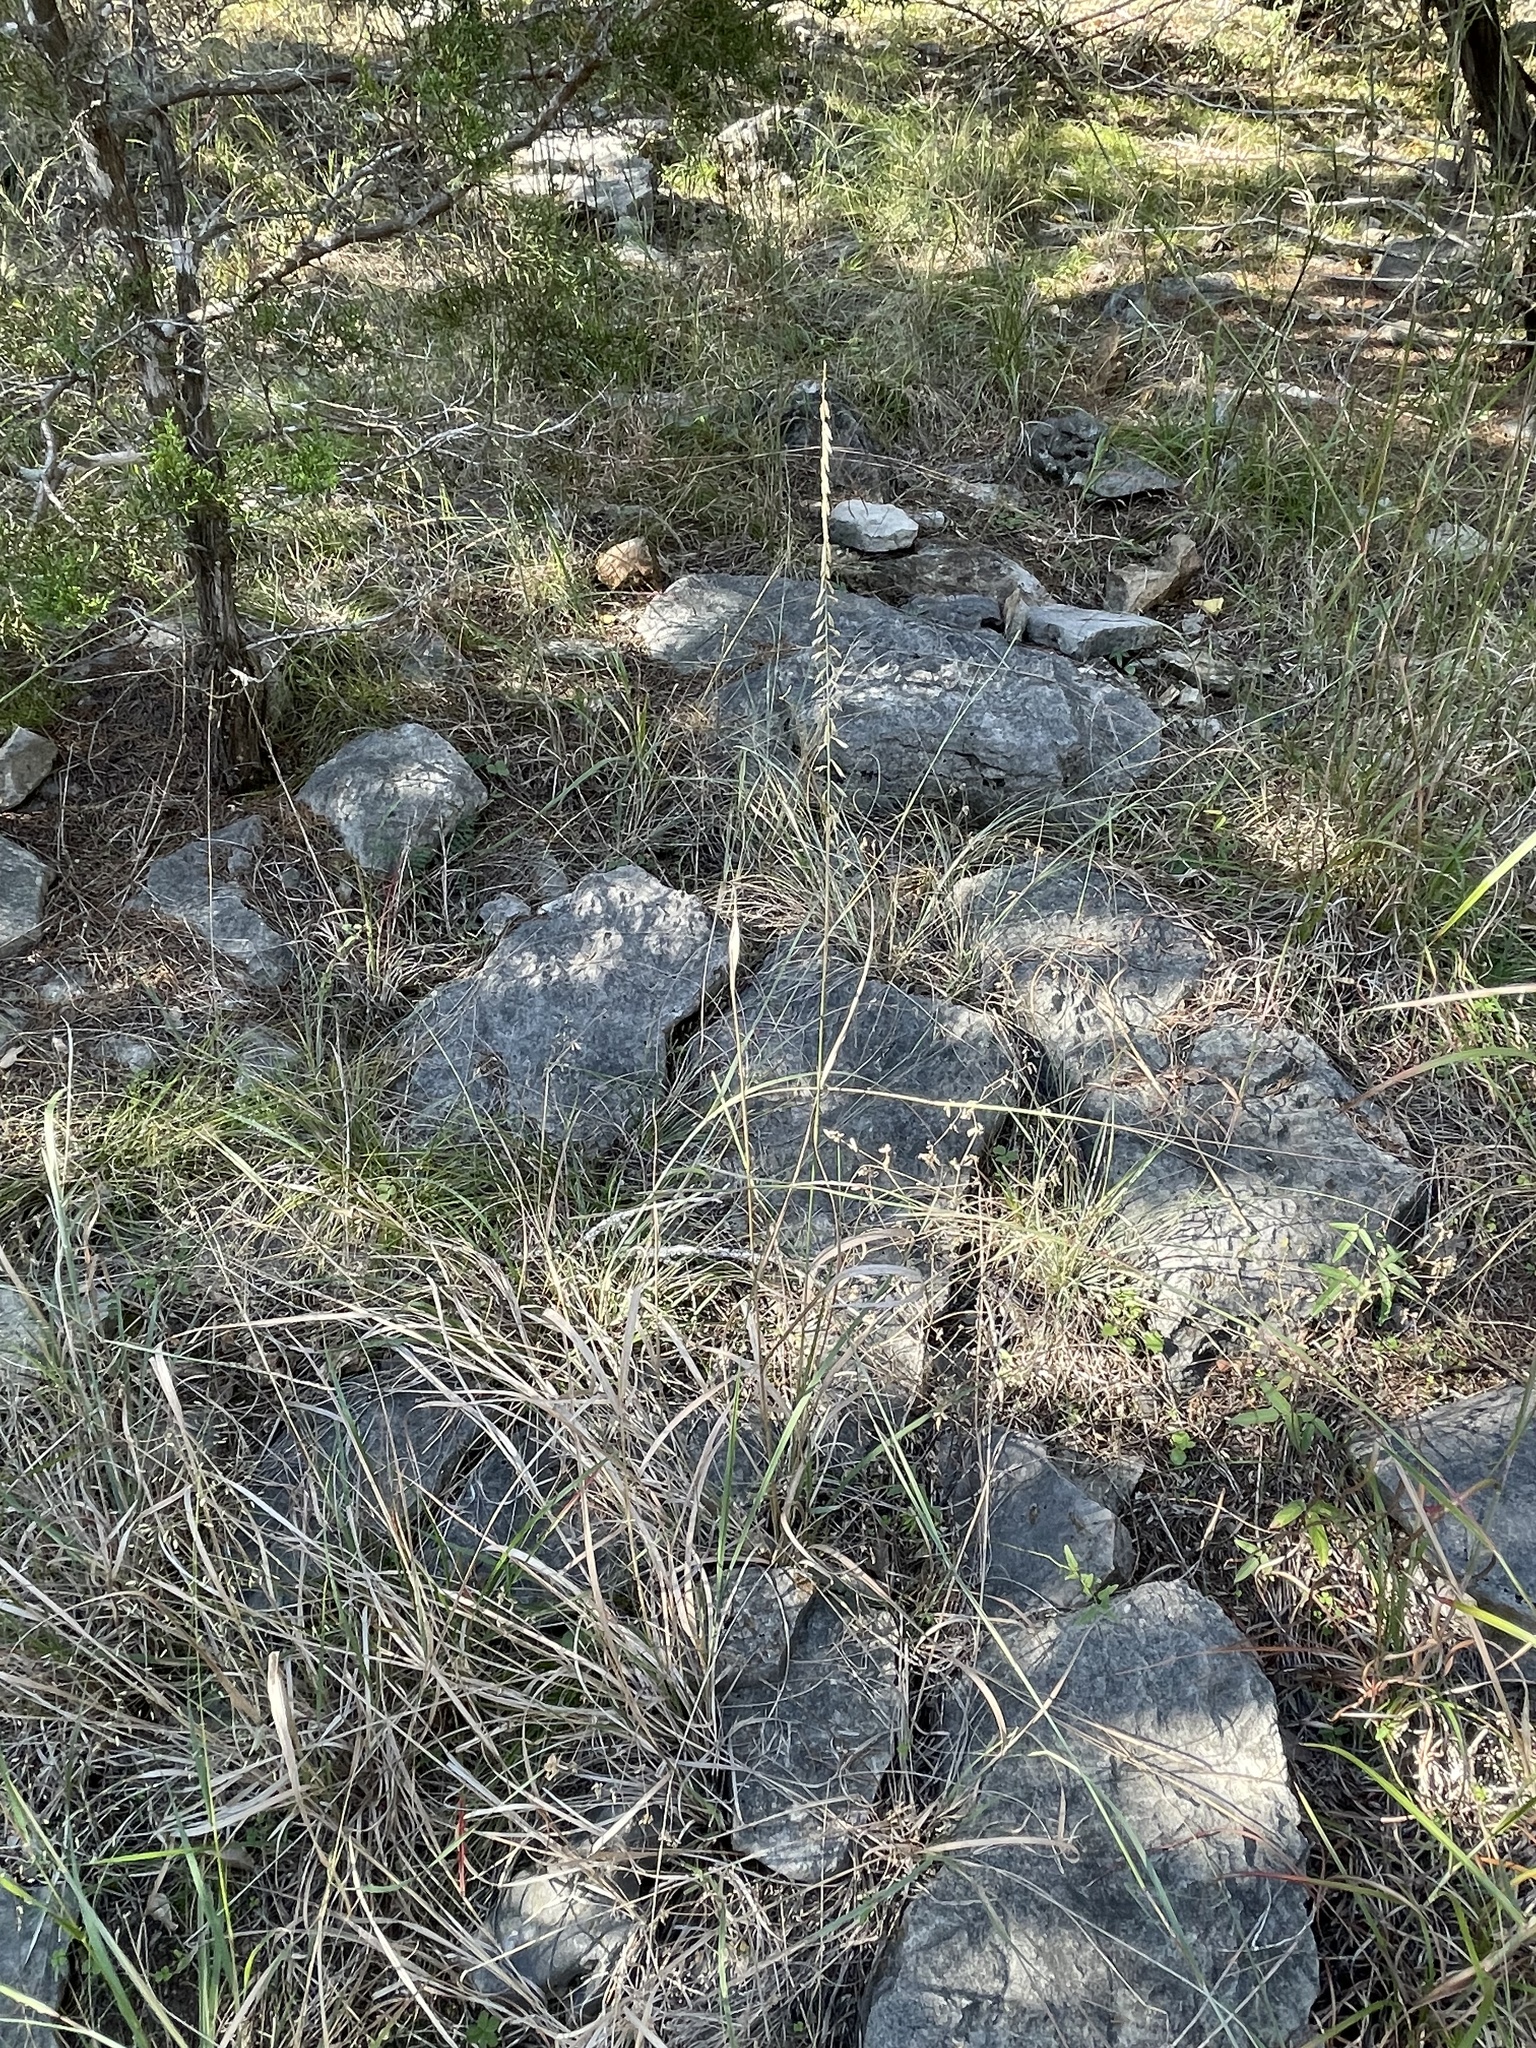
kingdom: Plantae
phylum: Tracheophyta
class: Liliopsida
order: Poales
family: Poaceae
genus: Bouteloua
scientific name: Bouteloua curtipendula
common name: Side-oats grama
